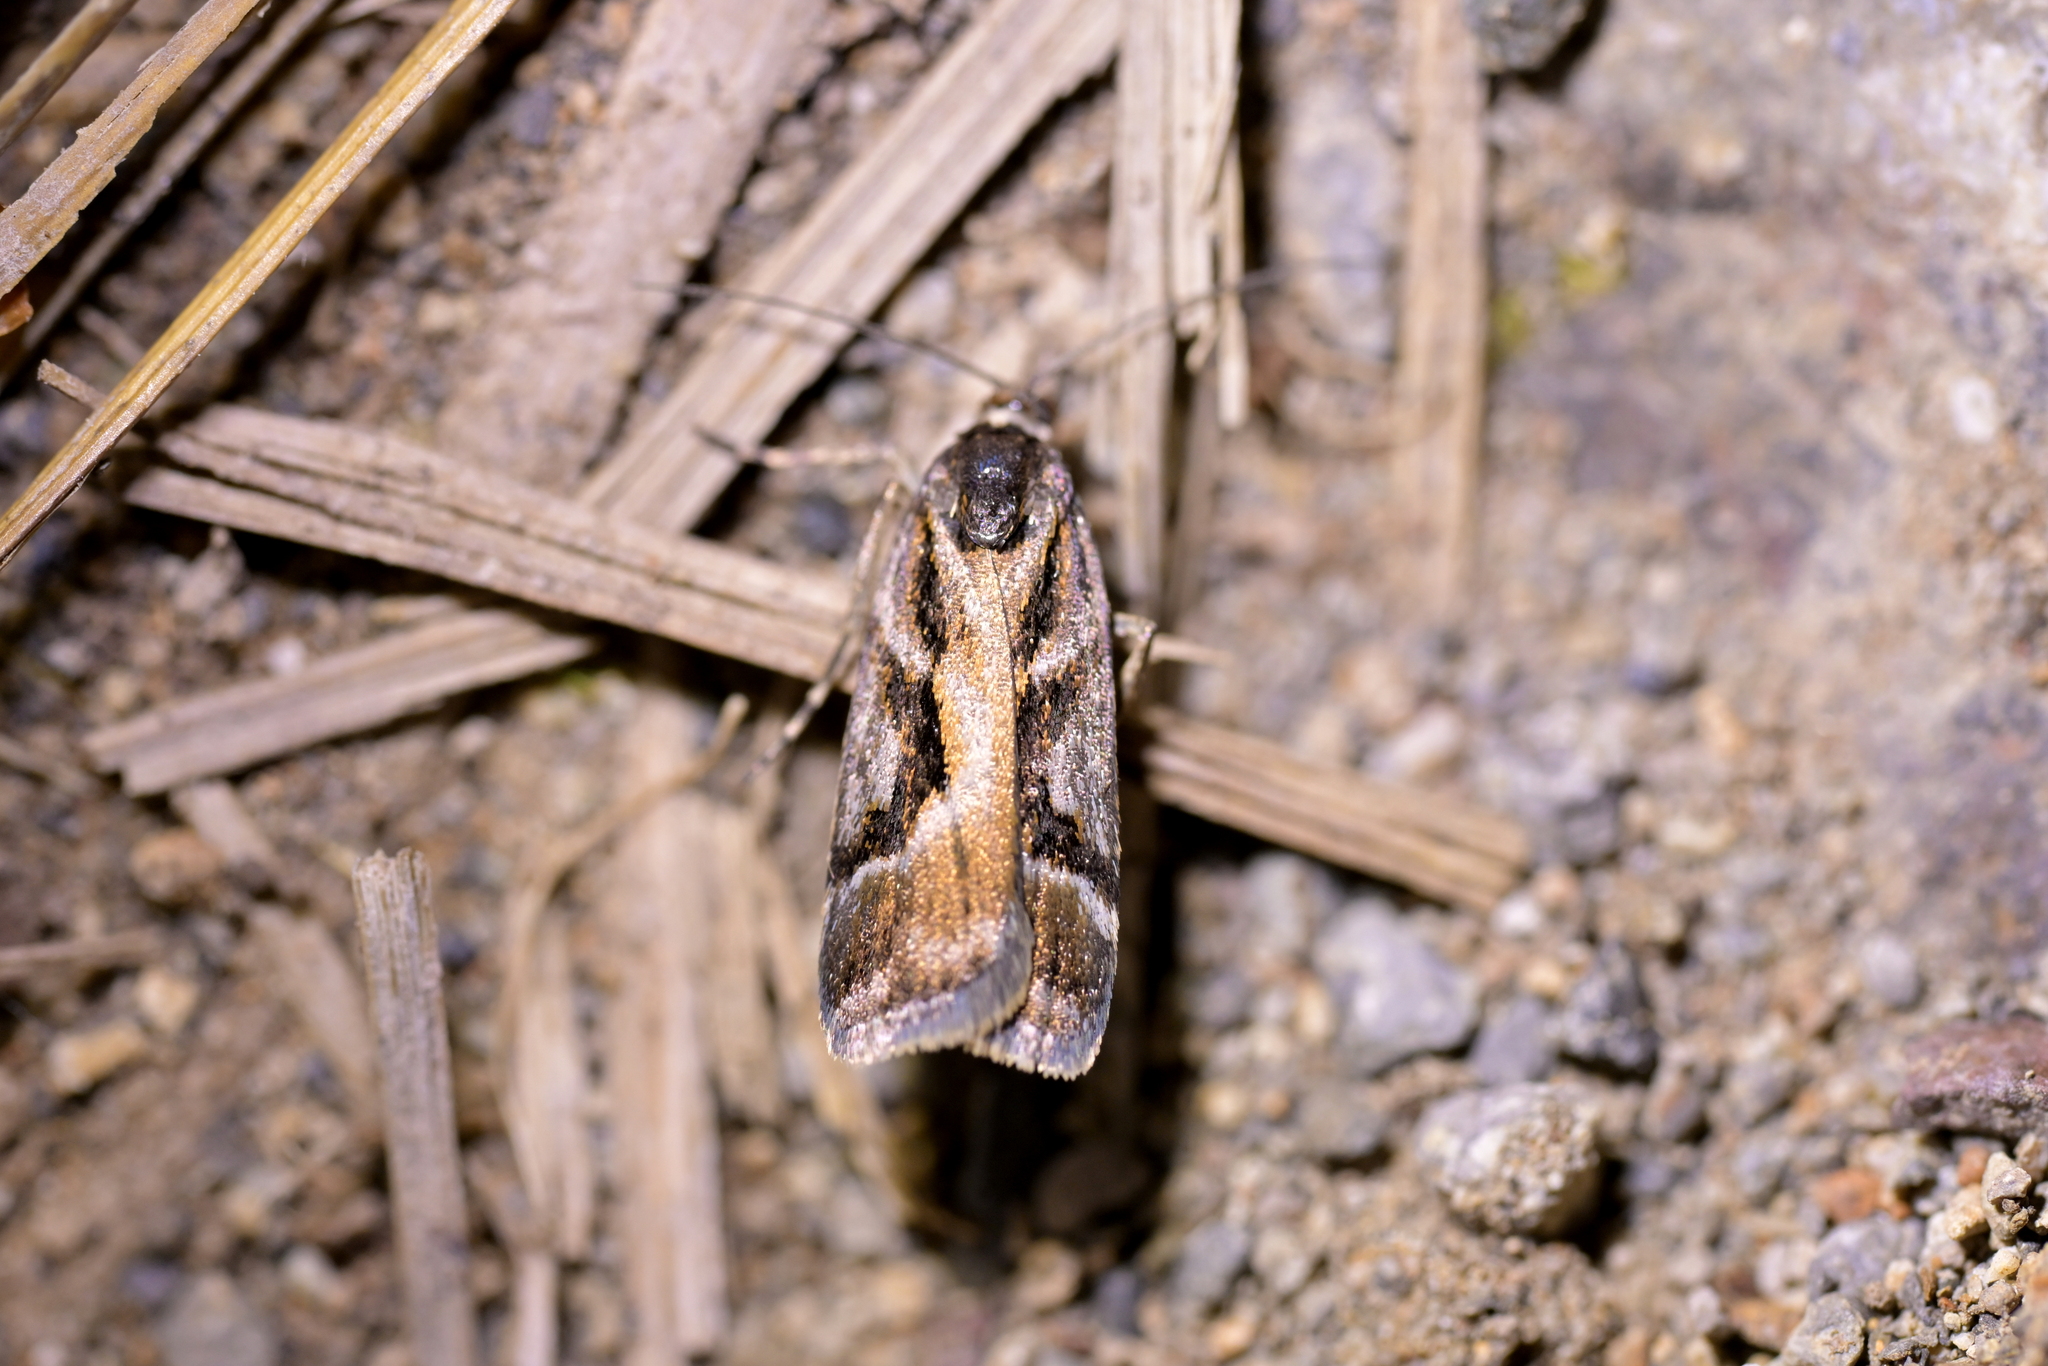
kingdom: Animalia
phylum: Arthropoda
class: Insecta
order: Lepidoptera
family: Crambidae
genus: Eudonia
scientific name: Eudonia hemicycla
